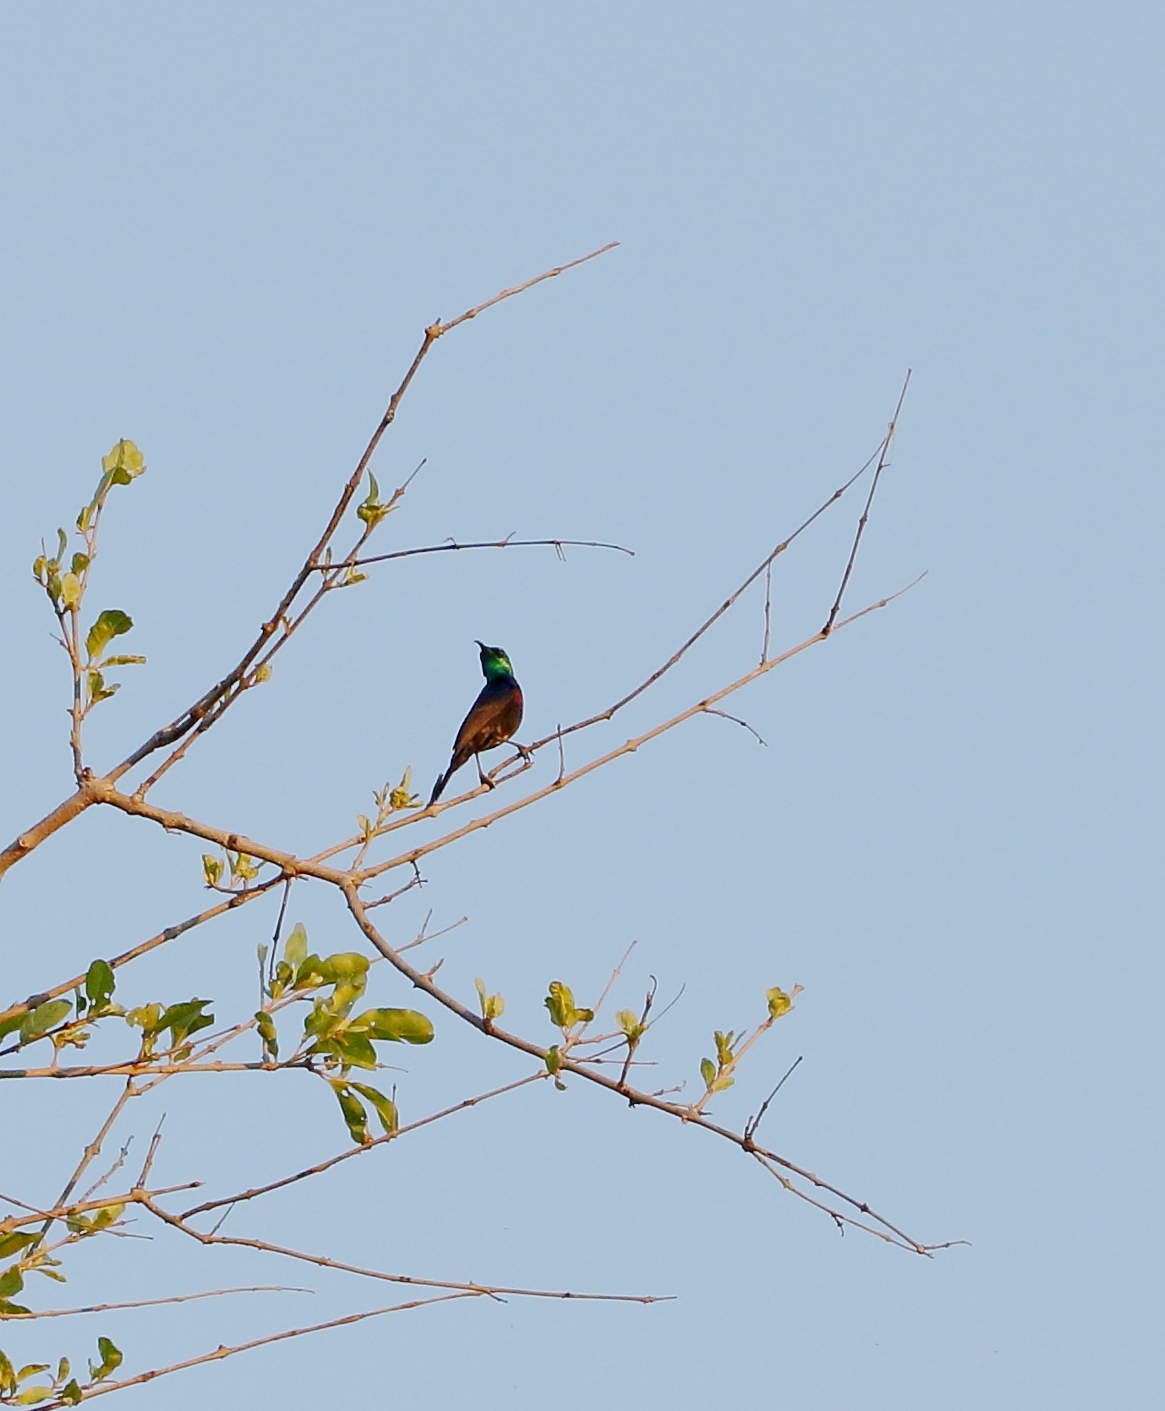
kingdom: Animalia
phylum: Chordata
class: Aves
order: Passeriformes
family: Nectariniidae
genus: Cinnyris
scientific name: Cinnyris mariquensis
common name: Marico sunbird
